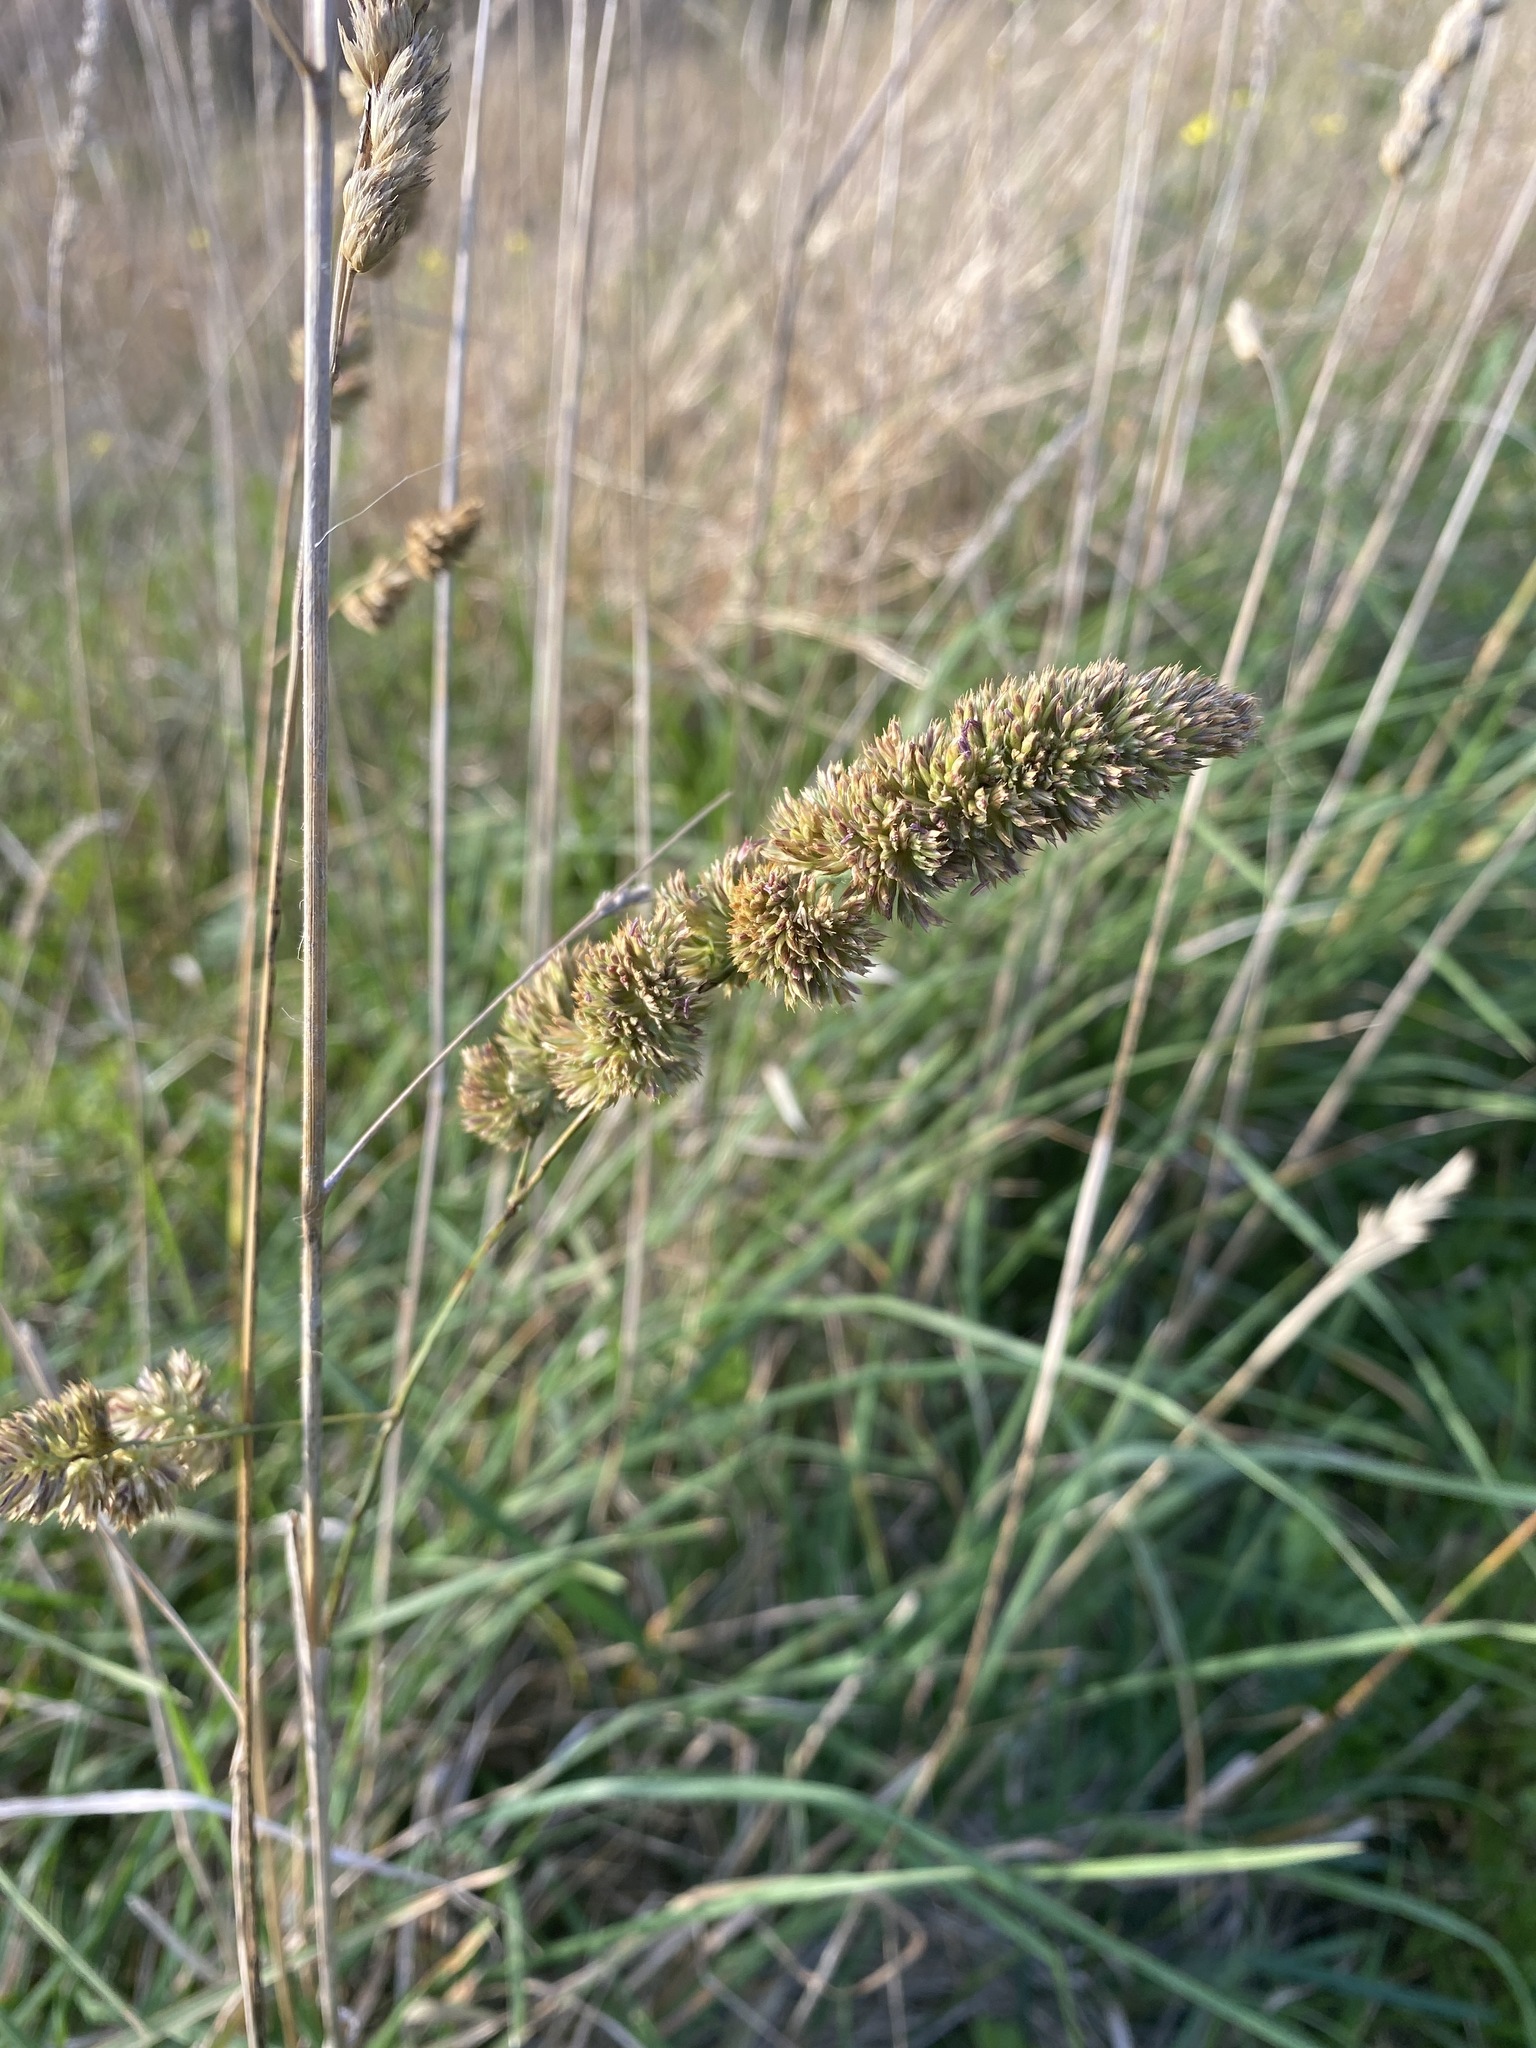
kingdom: Plantae
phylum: Tracheophyta
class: Liliopsida
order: Poales
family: Poaceae
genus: Dactylis
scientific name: Dactylis glomerata
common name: Orchardgrass
